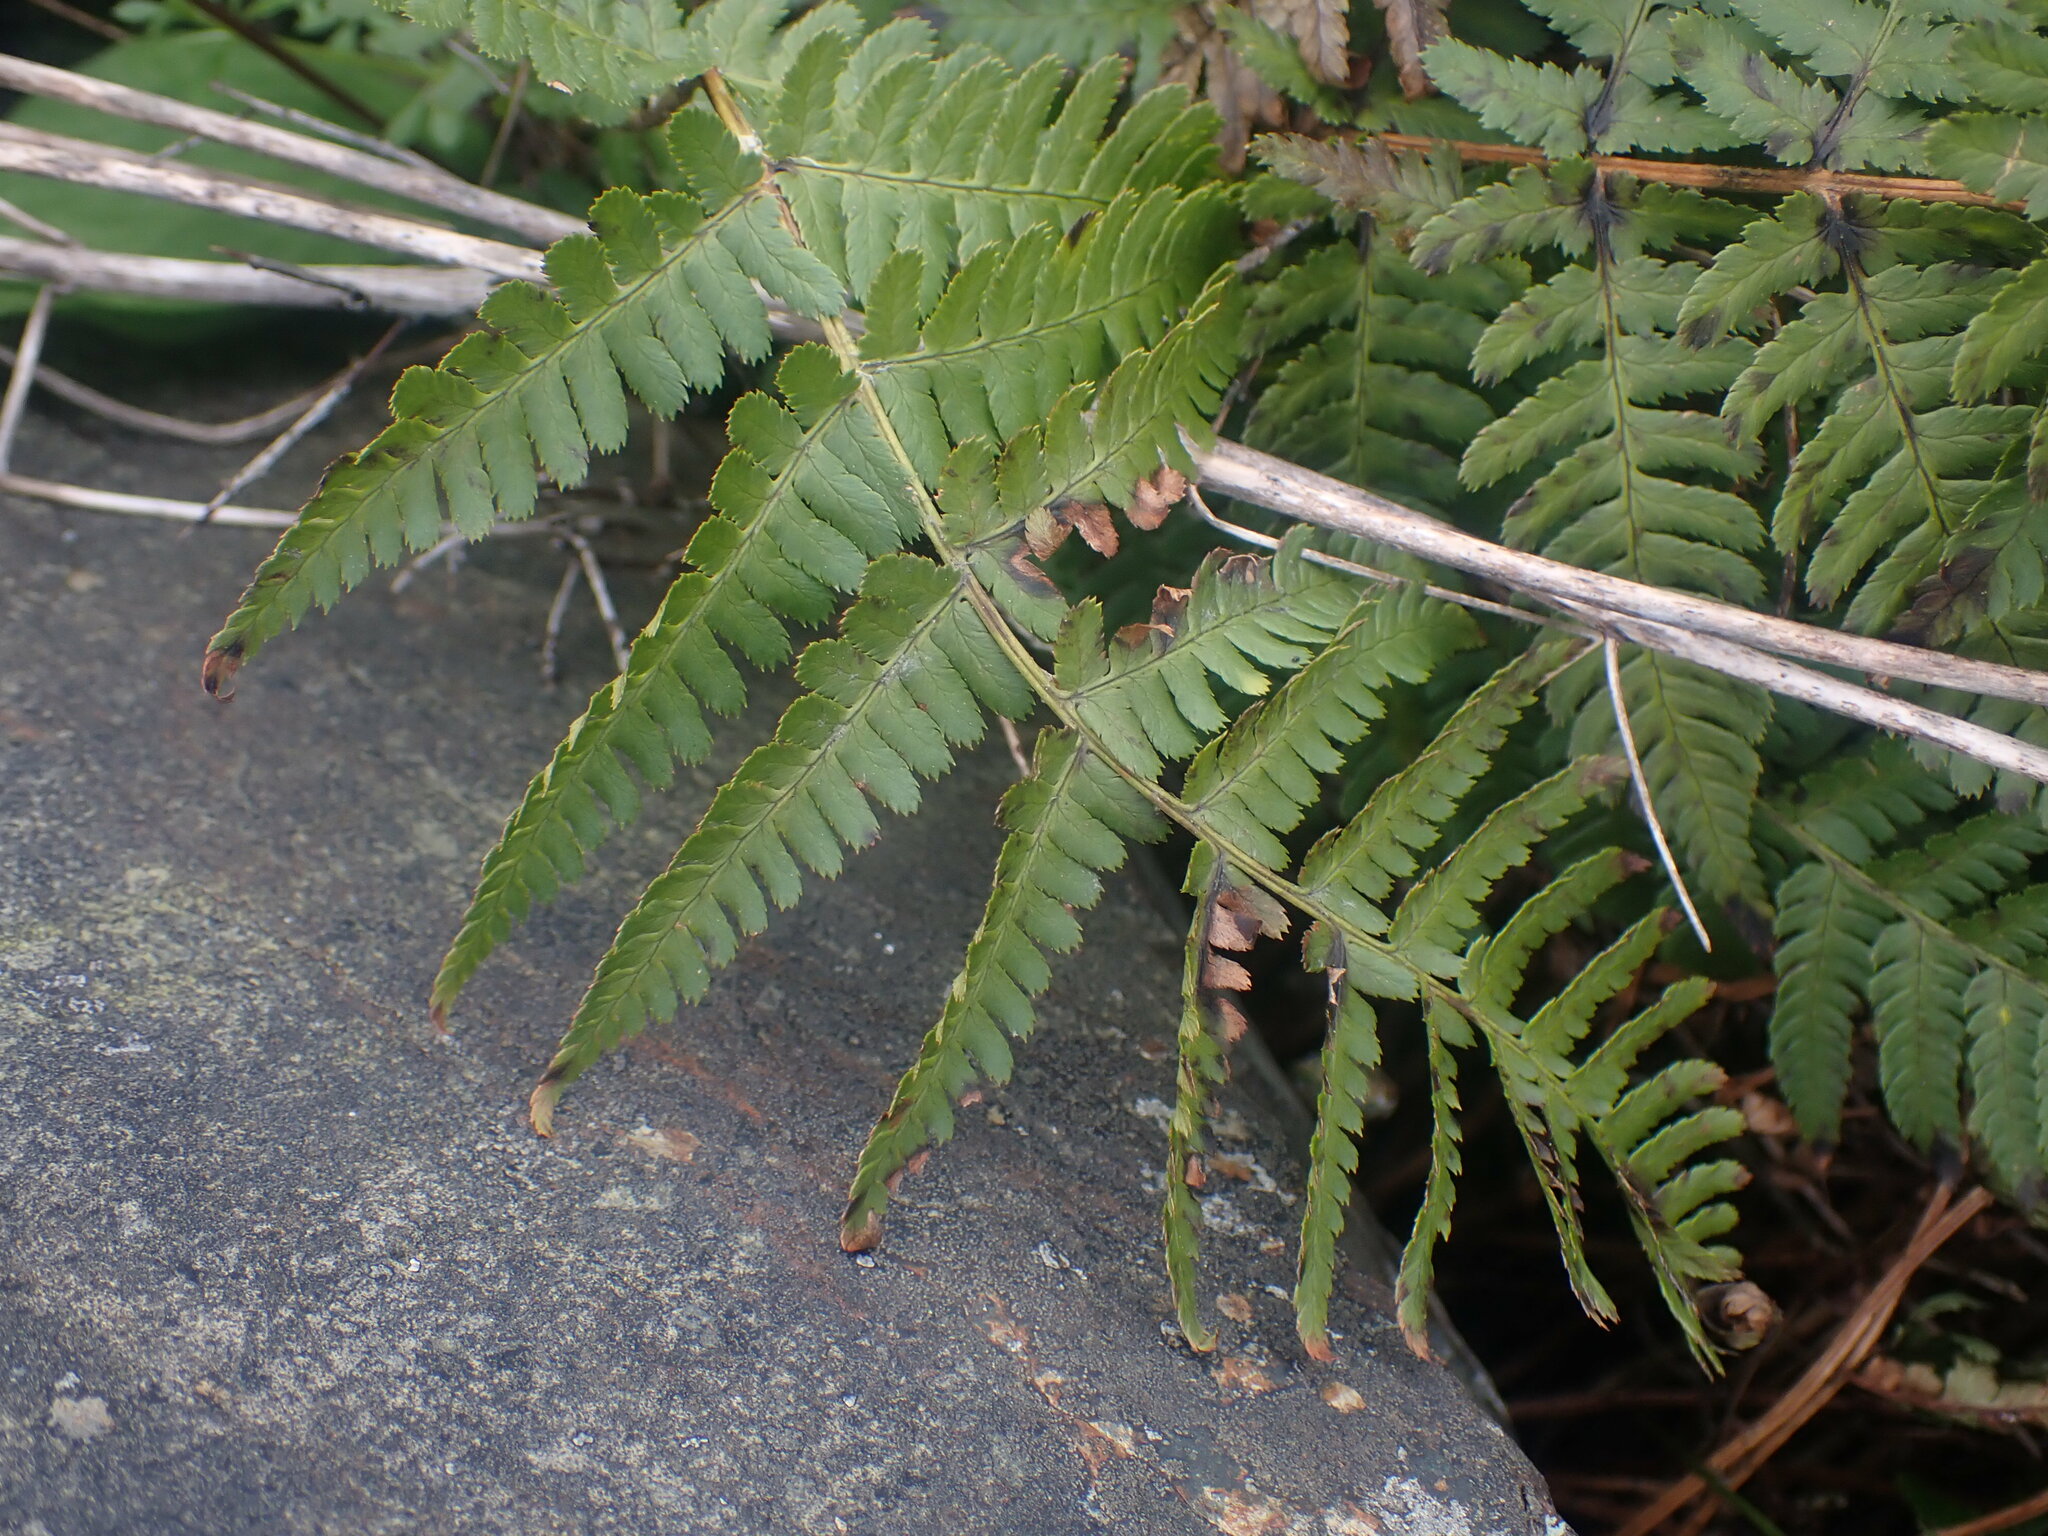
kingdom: Plantae
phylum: Tracheophyta
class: Polypodiopsida
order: Polypodiales
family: Dryopteridaceae
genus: Dryopteris
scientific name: Dryopteris arguta
